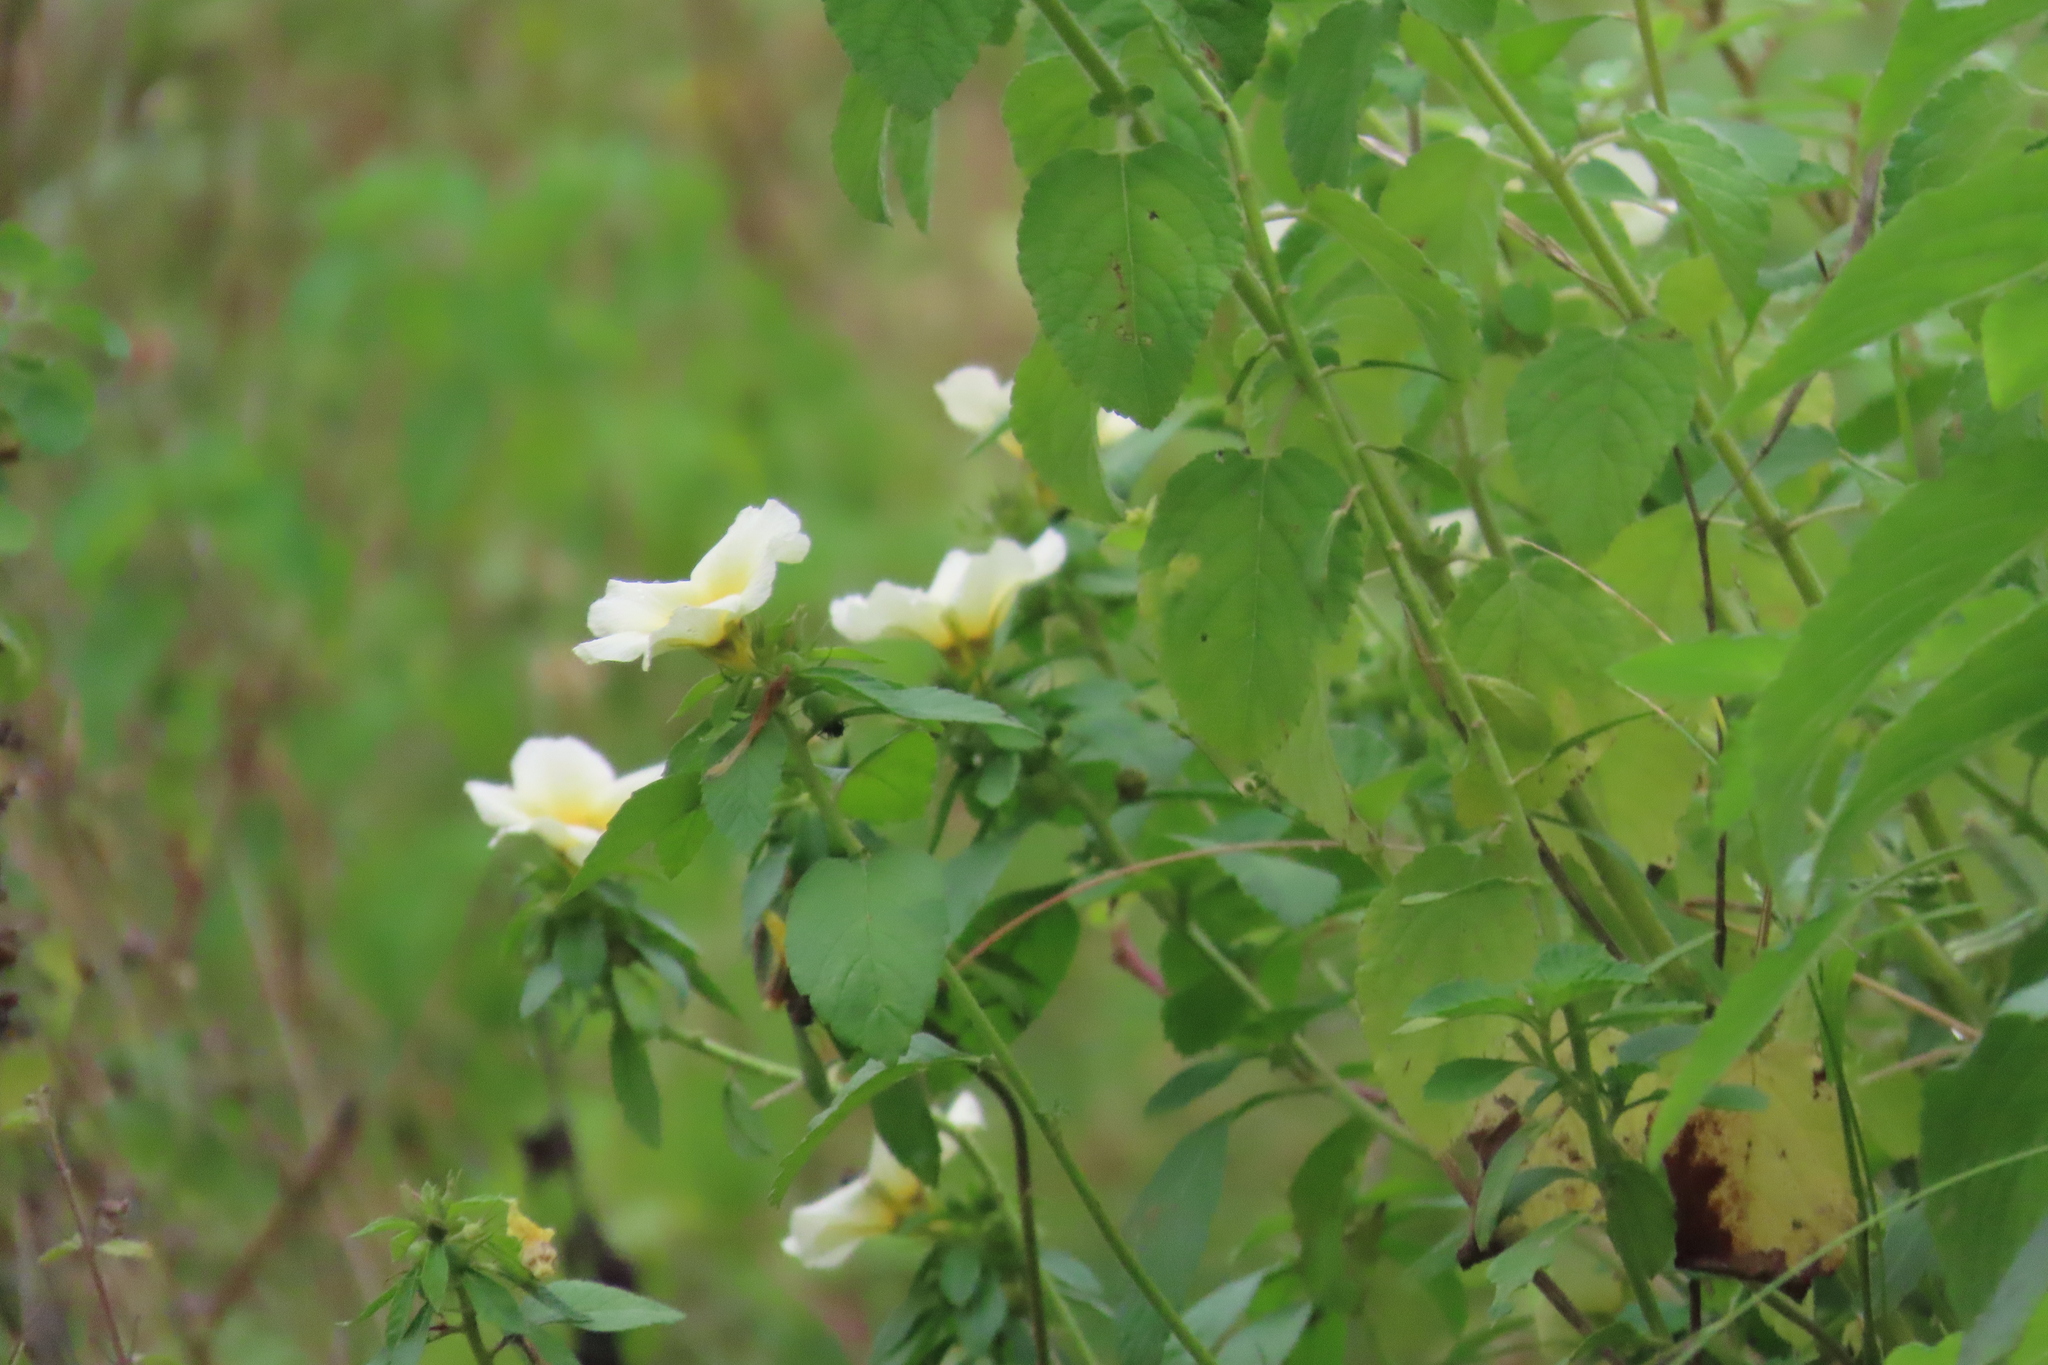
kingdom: Plantae
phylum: Tracheophyta
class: Magnoliopsida
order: Malpighiales
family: Turneraceae
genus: Turnera
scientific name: Turnera subulata
